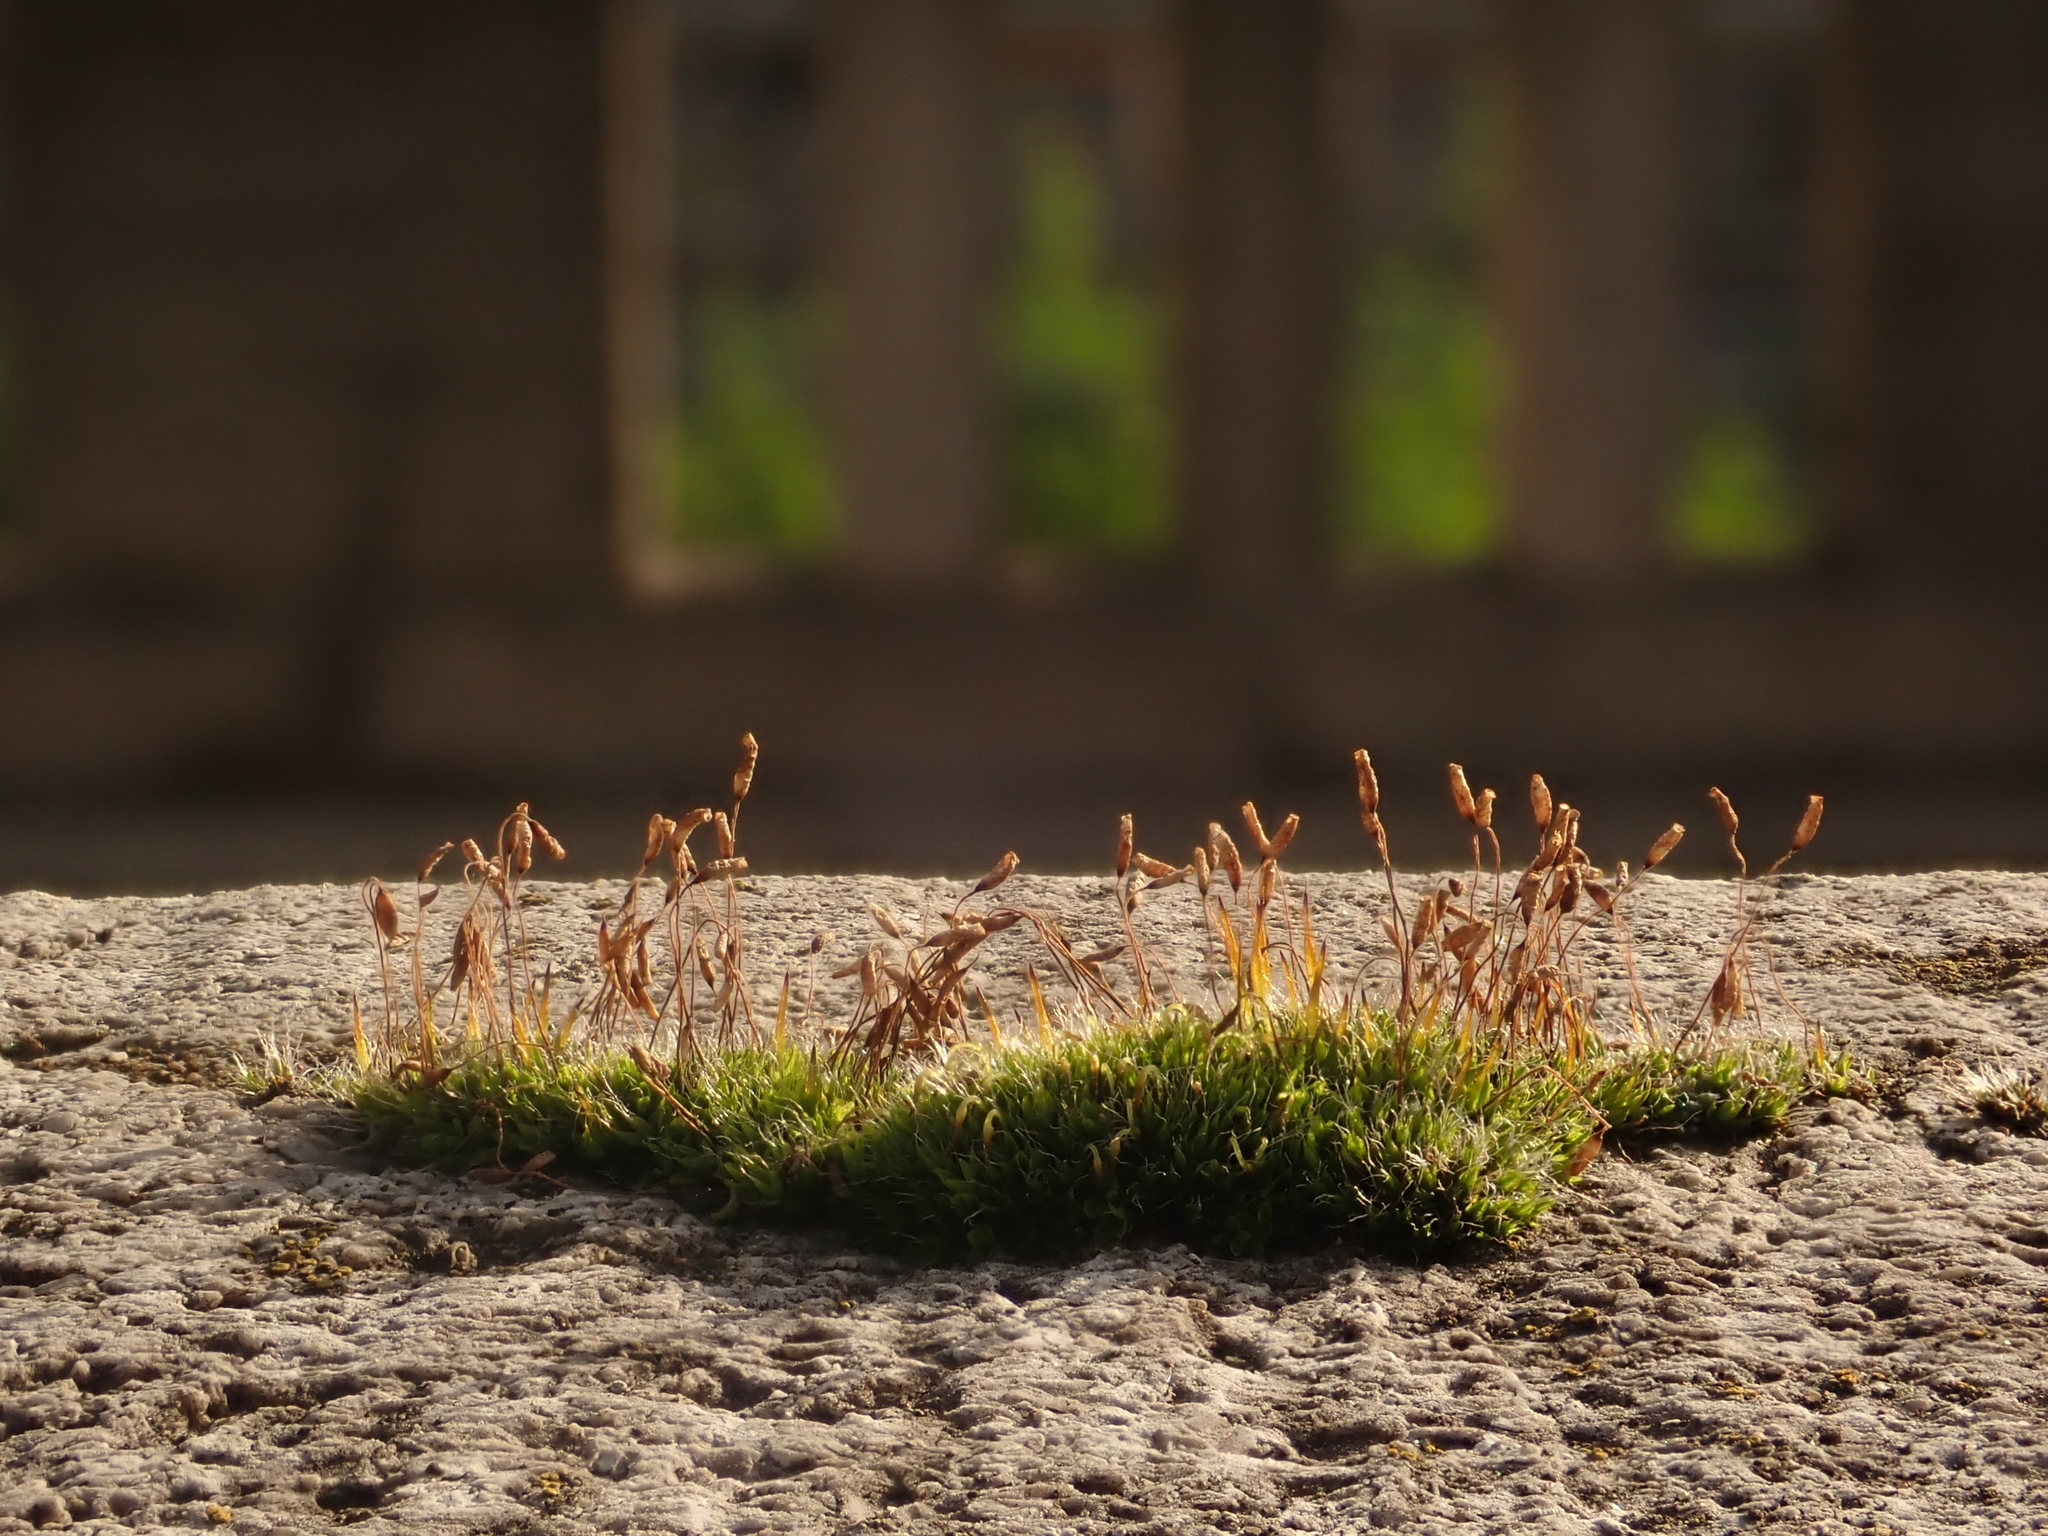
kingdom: Plantae
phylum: Bryophyta
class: Bryopsida
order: Pottiales
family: Pottiaceae
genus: Tortula
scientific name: Tortula muralis
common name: Wall screw-moss
